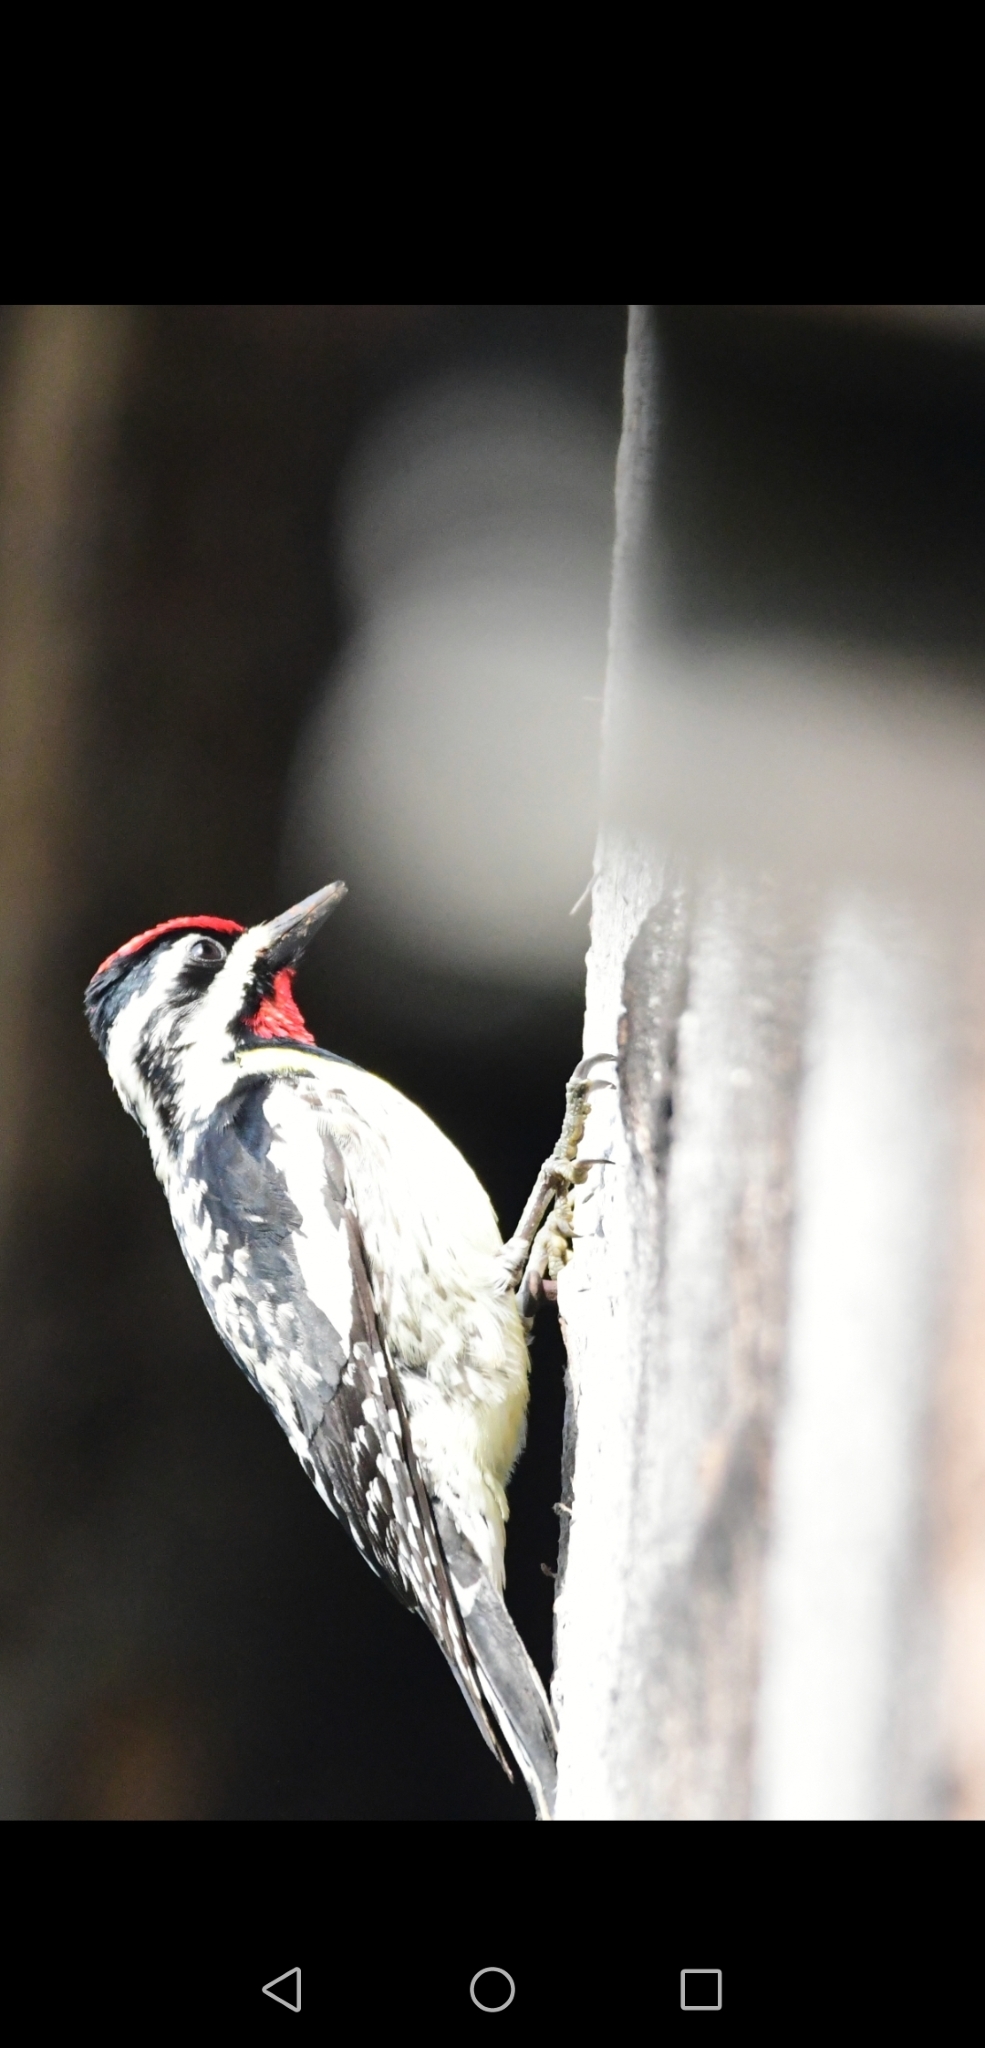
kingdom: Animalia
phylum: Chordata
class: Aves
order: Piciformes
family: Picidae
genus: Sphyrapicus
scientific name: Sphyrapicus varius
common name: Yellow-bellied sapsucker
